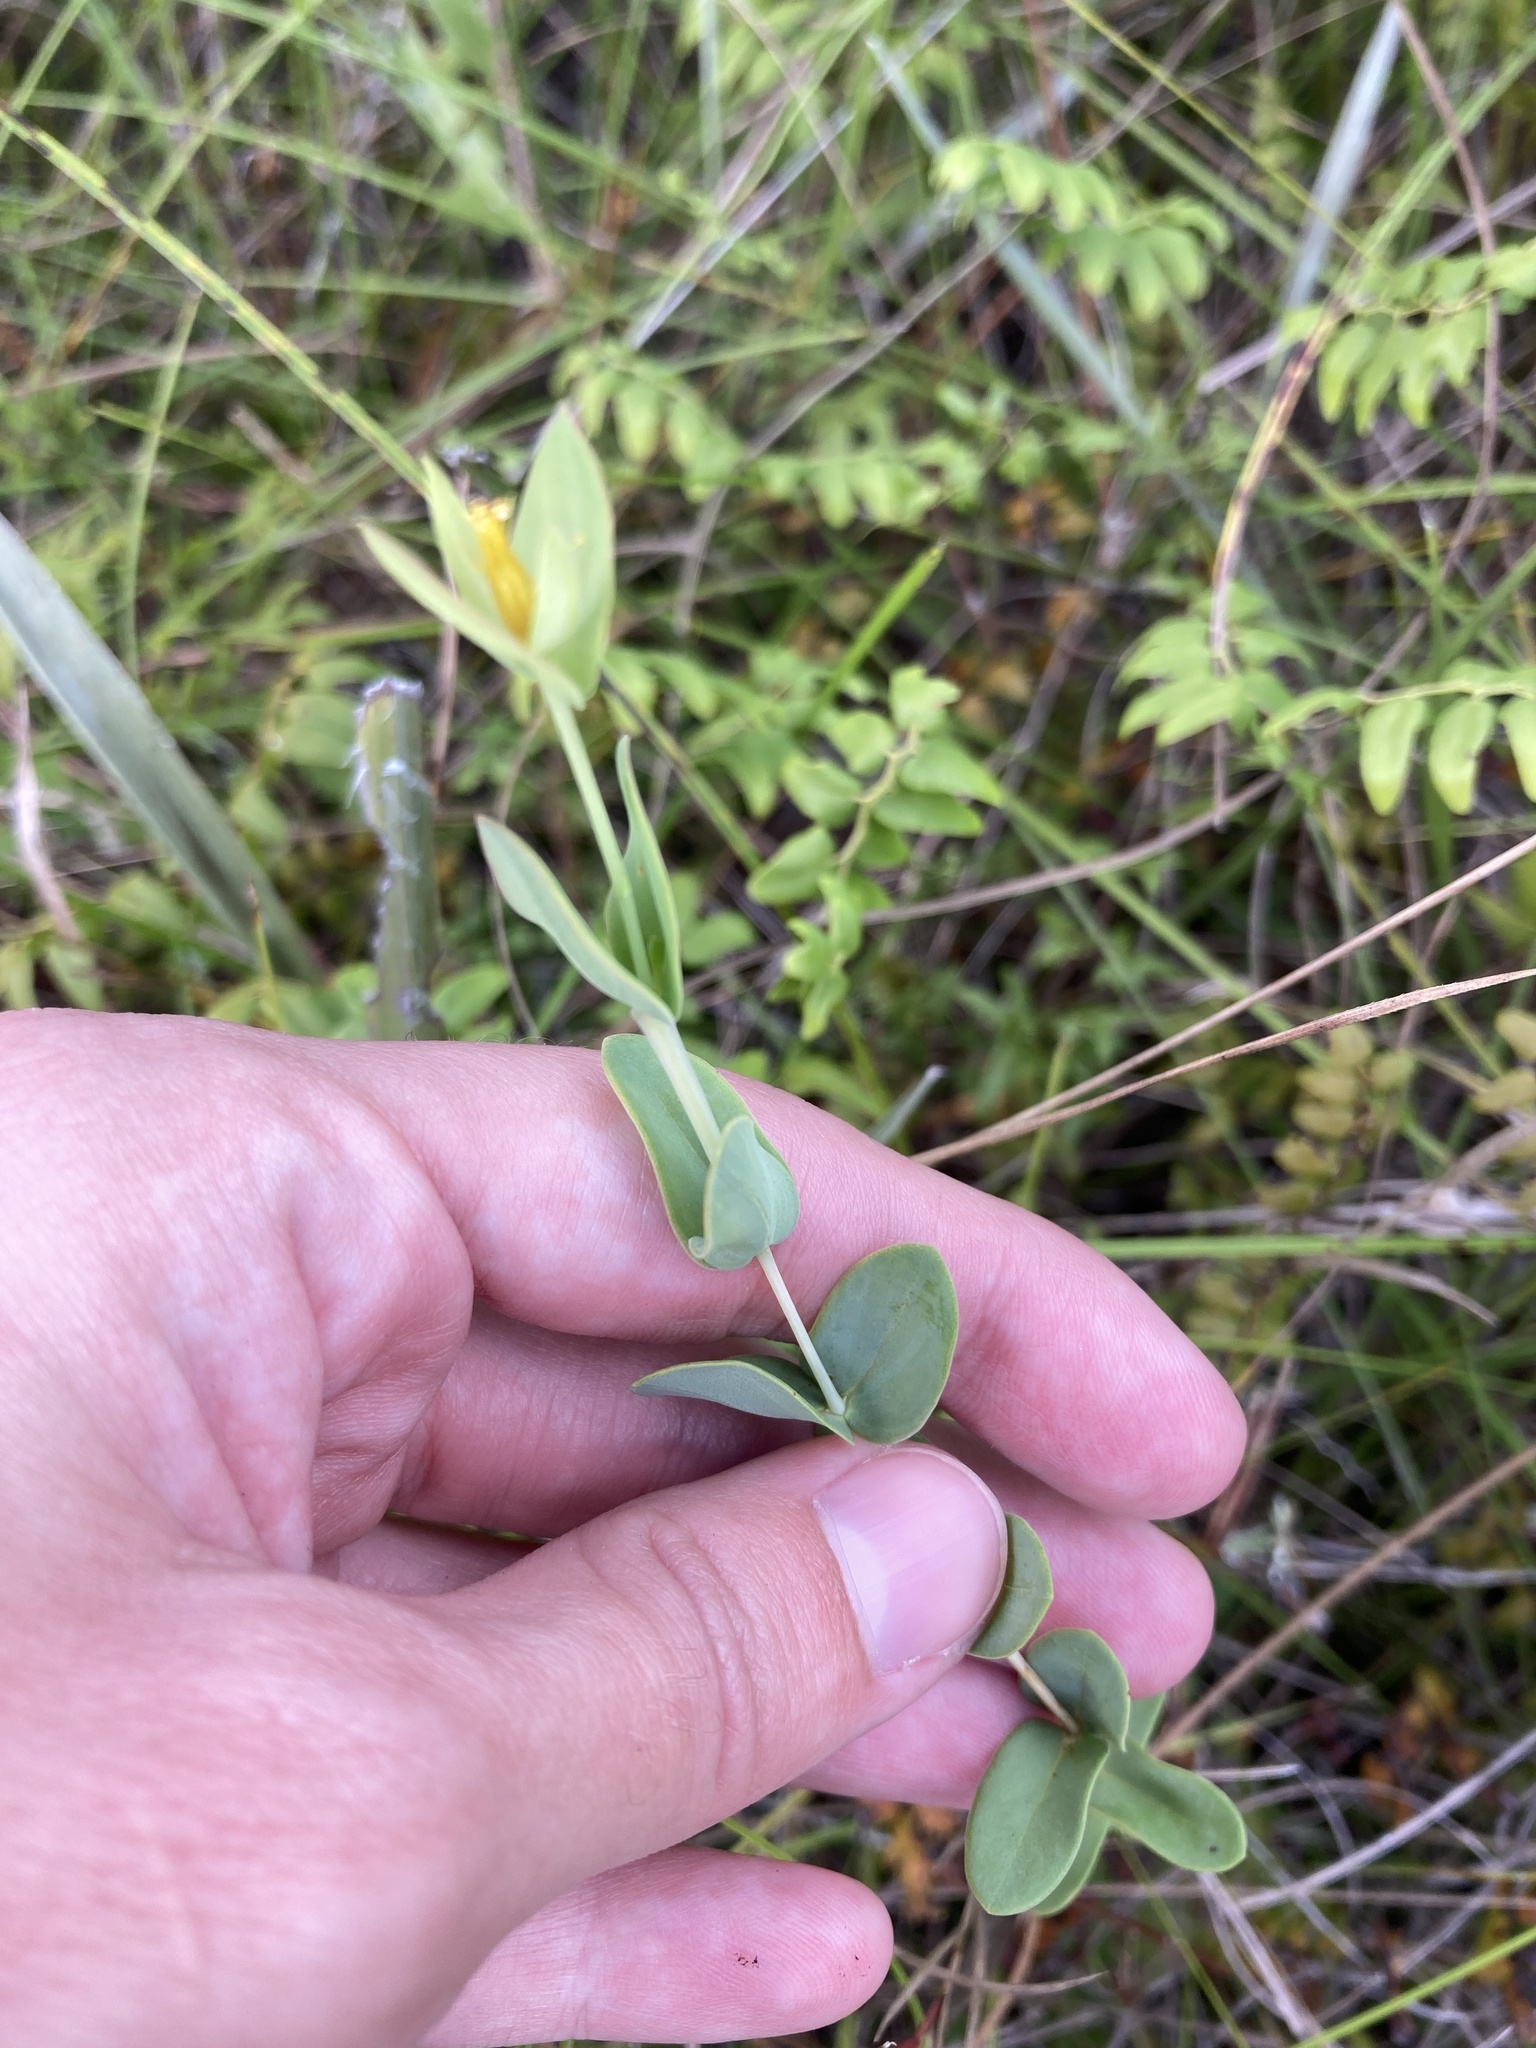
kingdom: Plantae
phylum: Tracheophyta
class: Magnoliopsida
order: Malpighiales
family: Hypericaceae
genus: Hypericum
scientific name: Hypericum tetrapetalum
